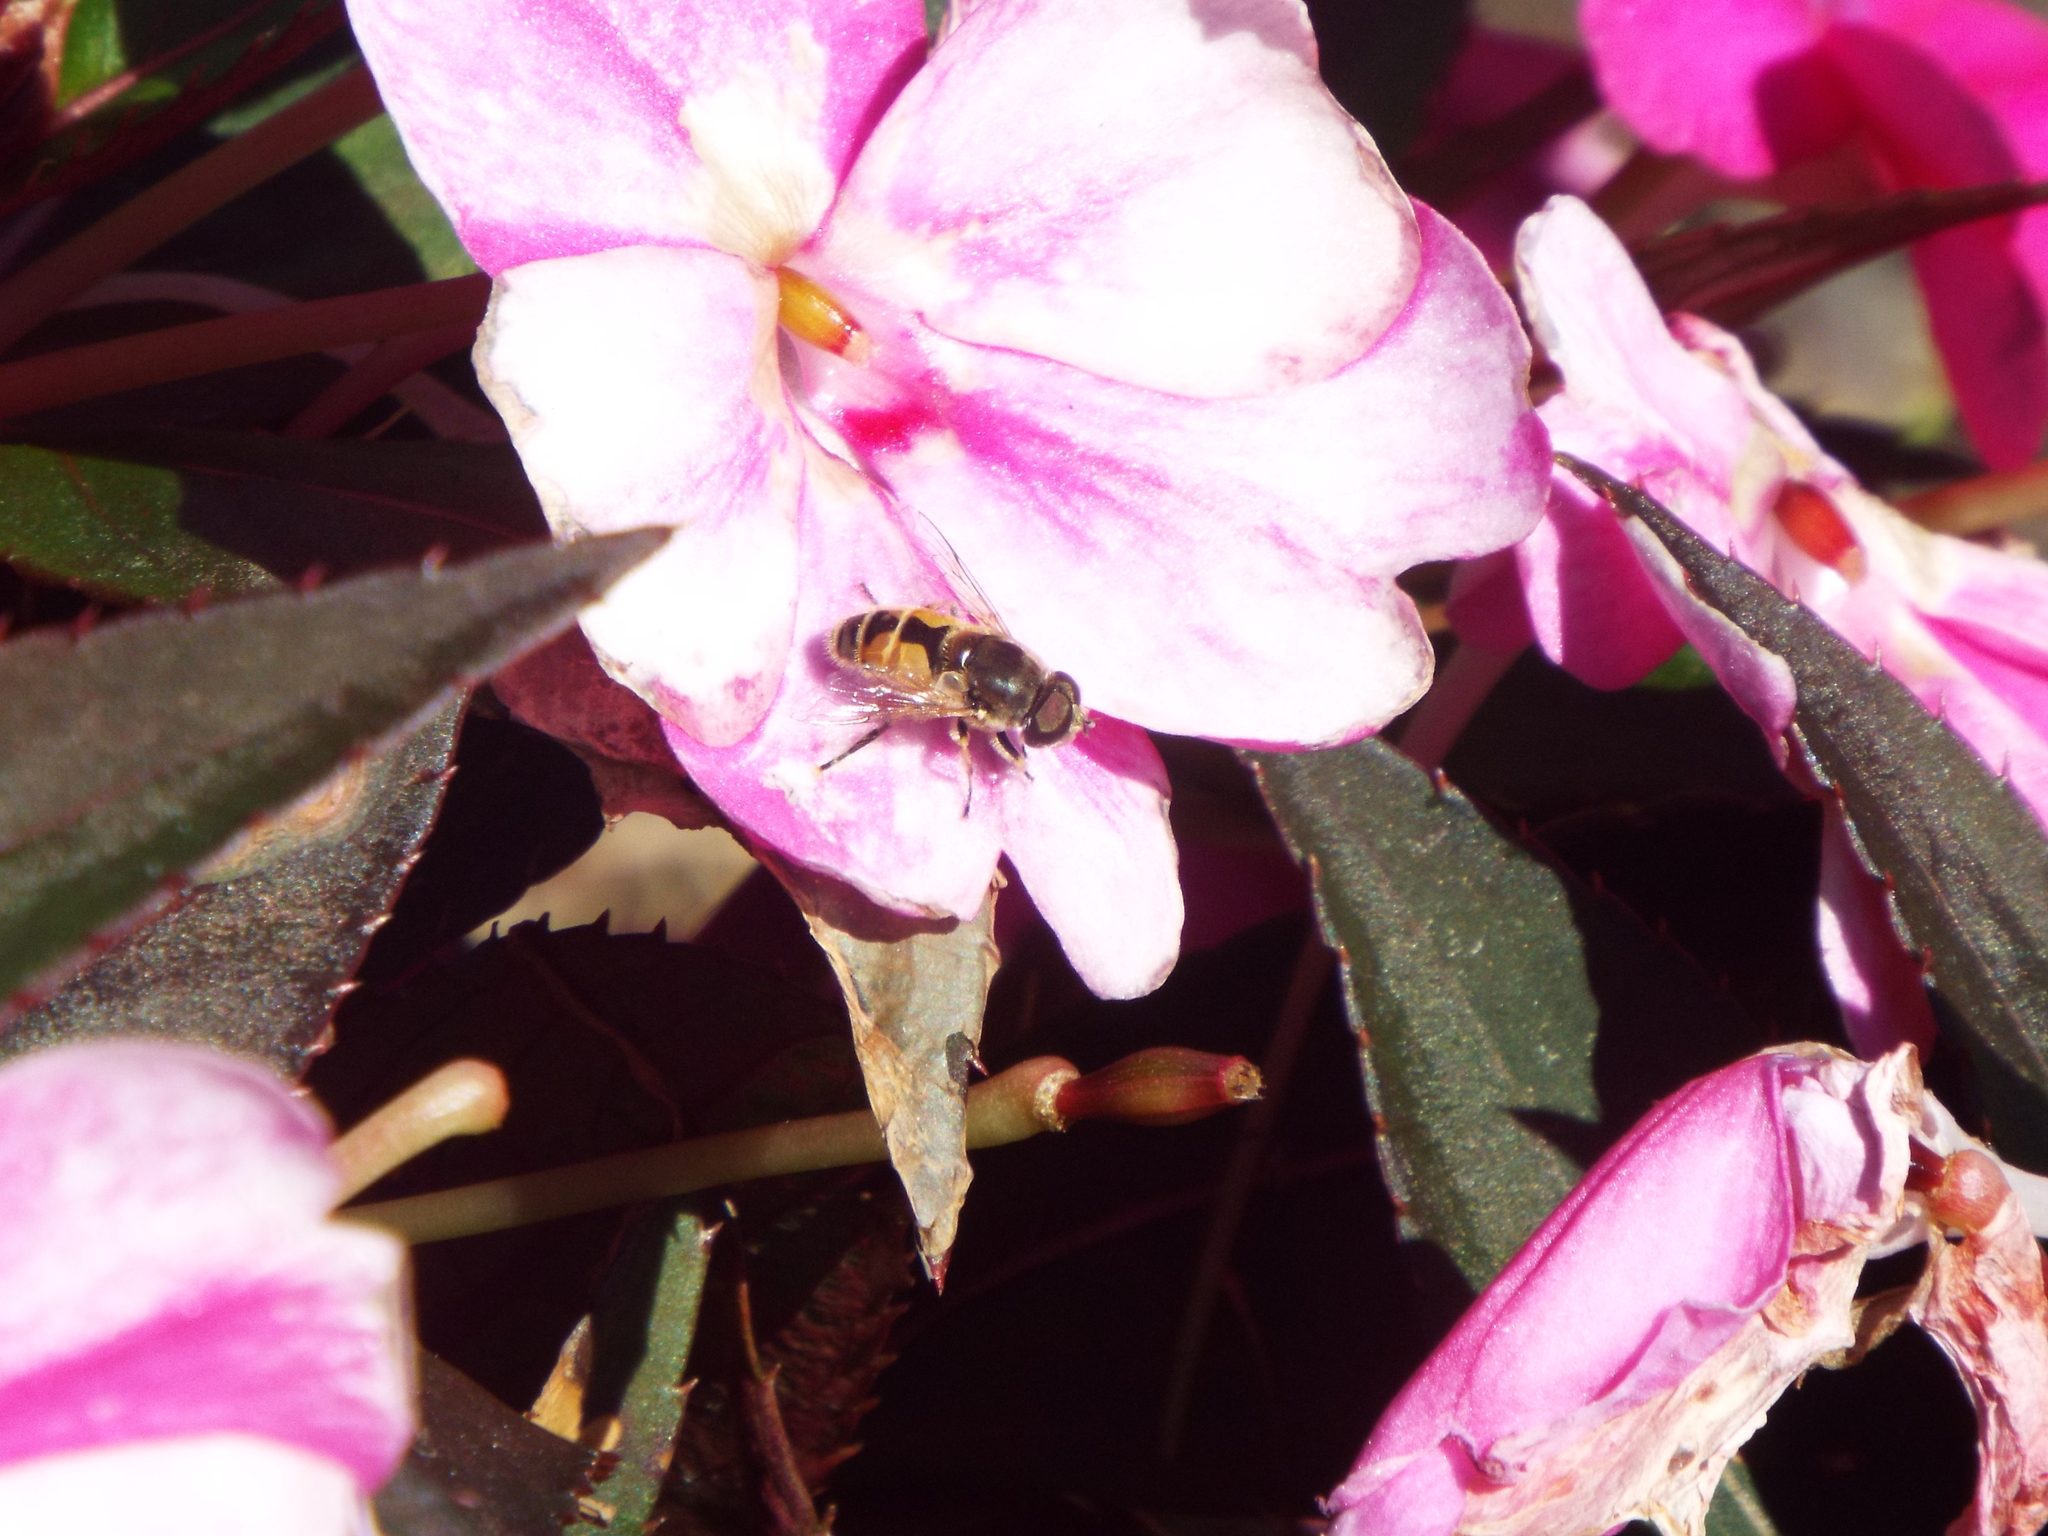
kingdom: Animalia
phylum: Arthropoda
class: Insecta
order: Diptera
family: Syrphidae
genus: Eristalis
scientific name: Eristalis arbustorum
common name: Hover fly
